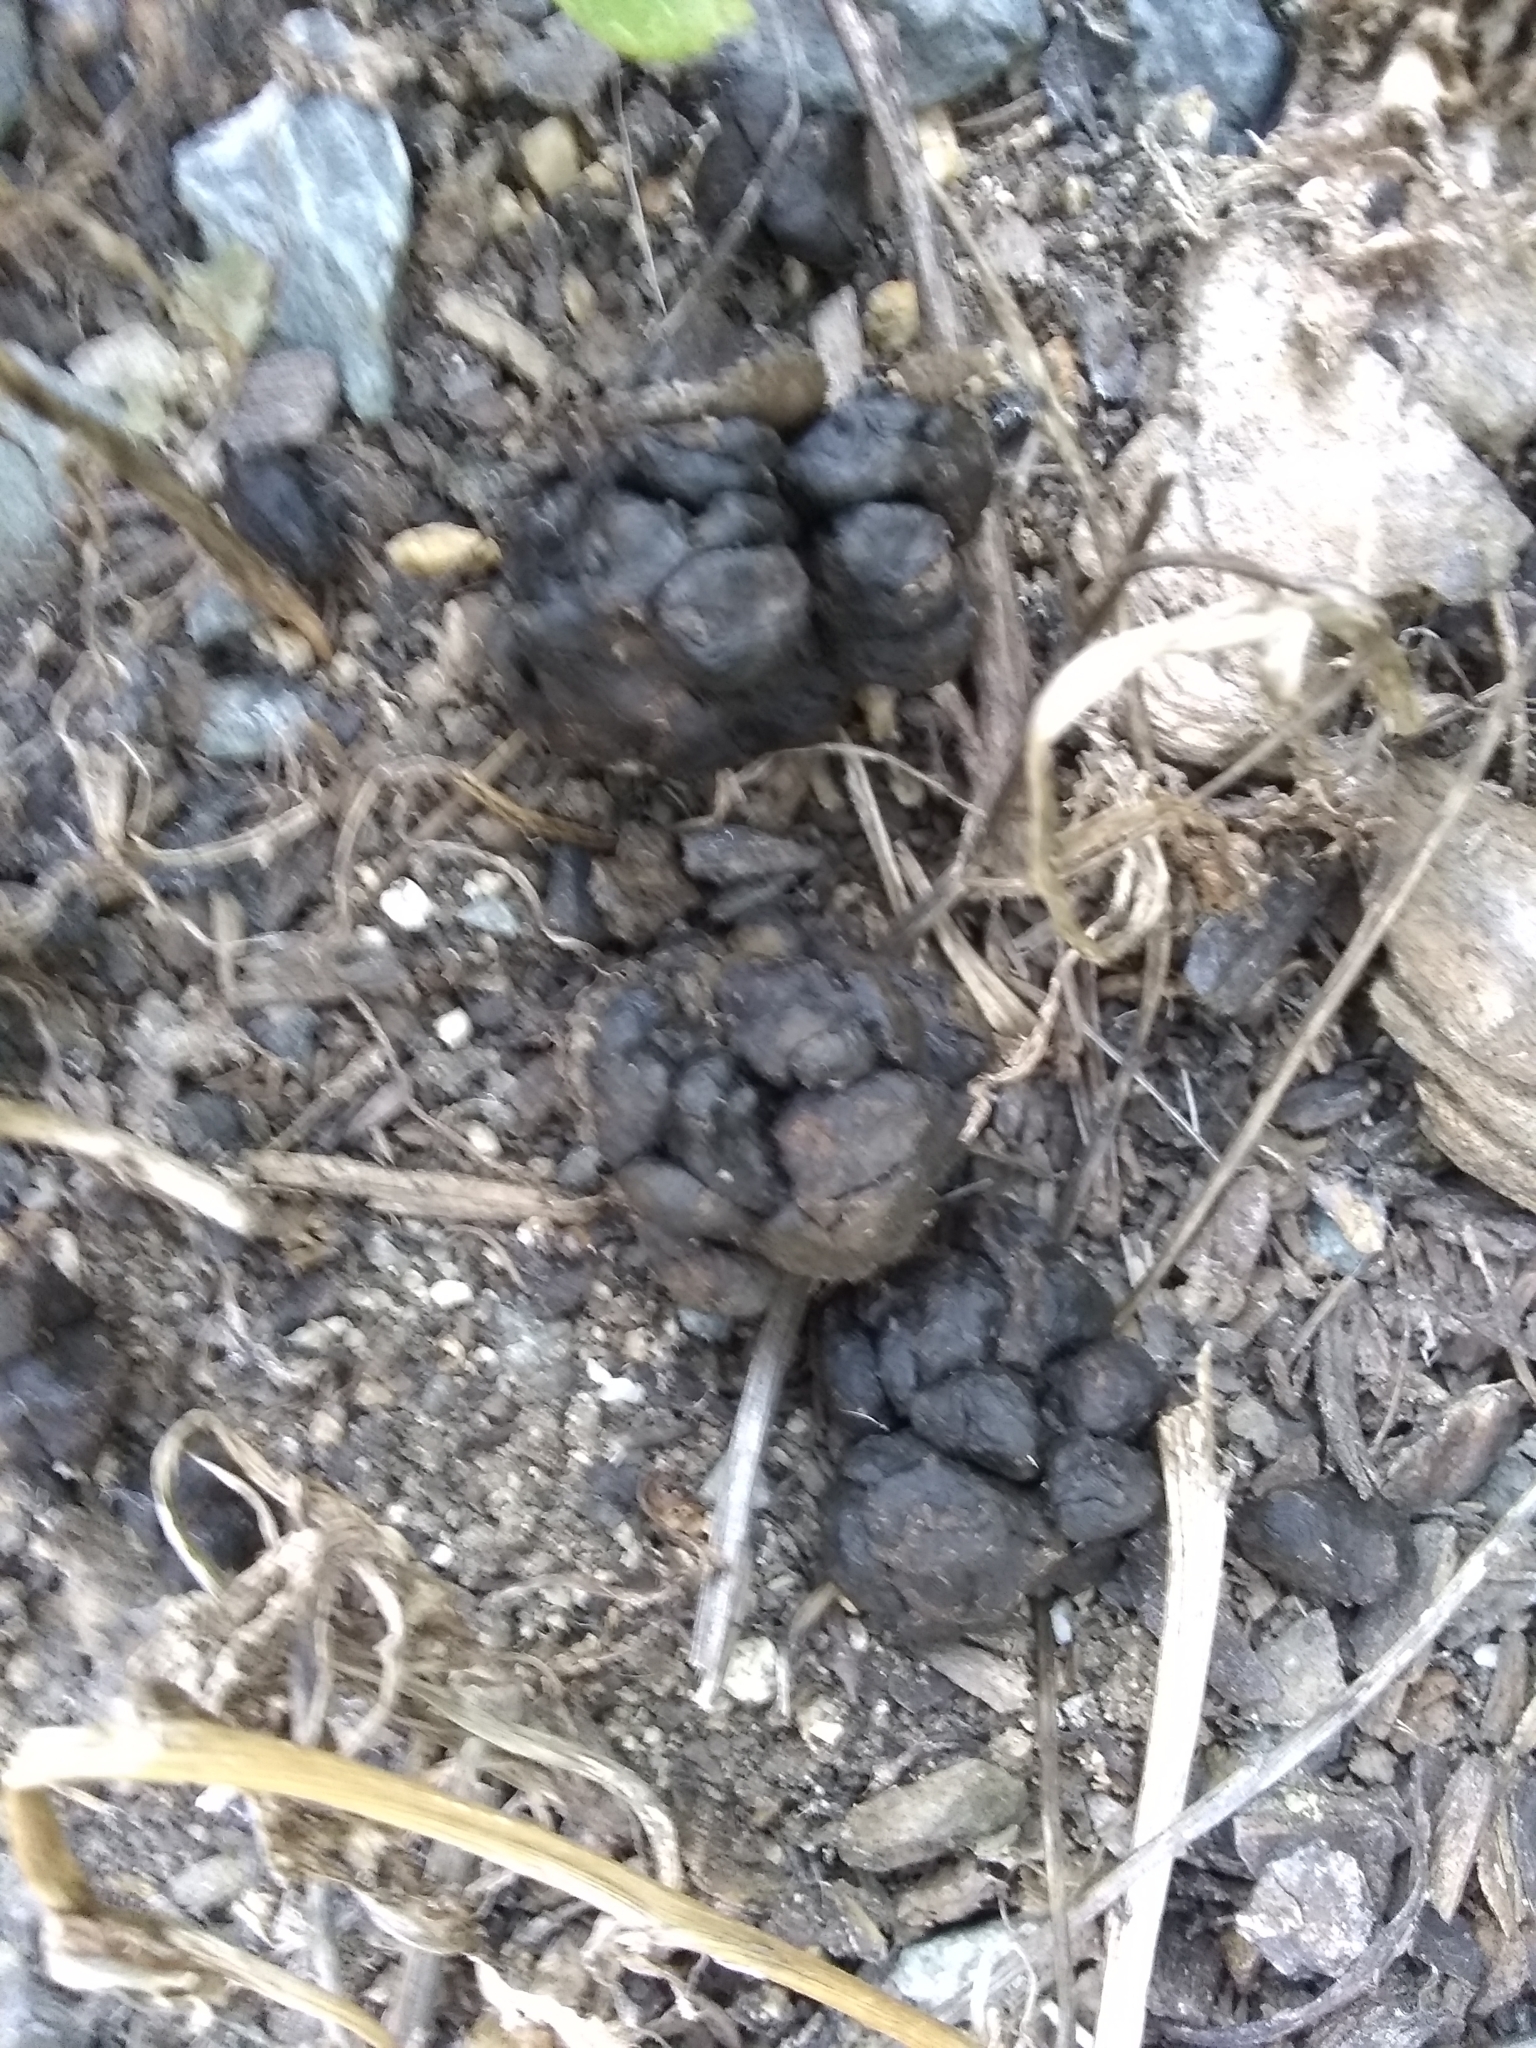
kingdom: Animalia
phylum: Chordata
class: Mammalia
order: Artiodactyla
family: Cervidae
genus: Odocoileus
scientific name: Odocoileus hemionus
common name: Mule deer
